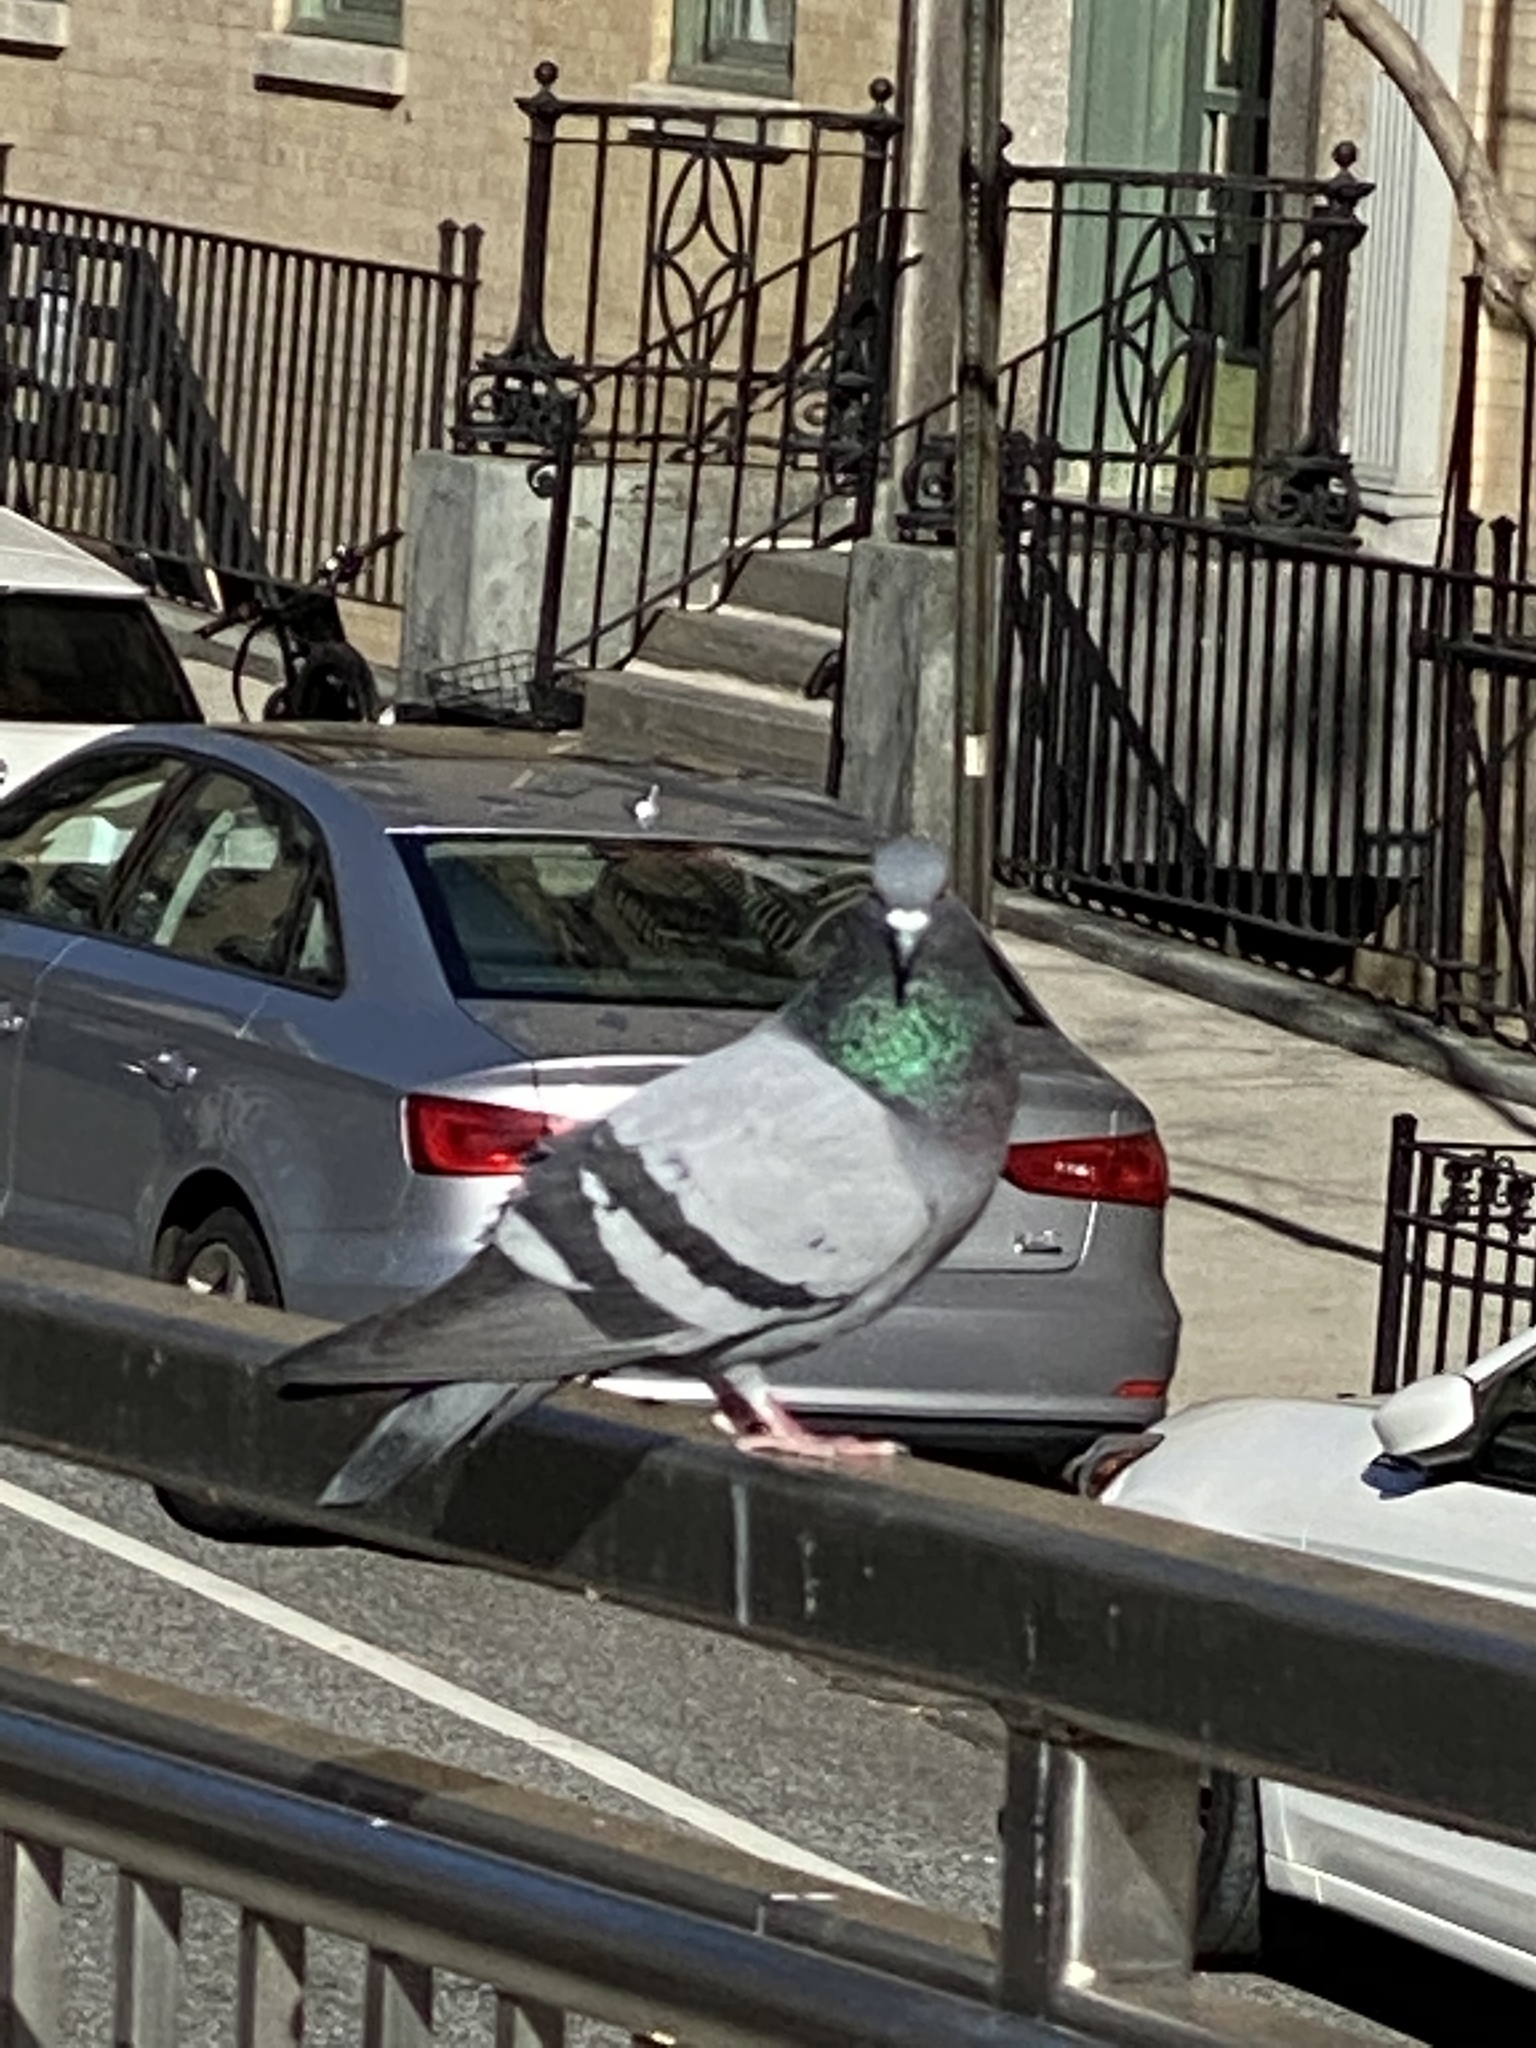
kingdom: Animalia
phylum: Chordata
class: Aves
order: Columbiformes
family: Columbidae
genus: Columba
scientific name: Columba livia
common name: Rock pigeon
